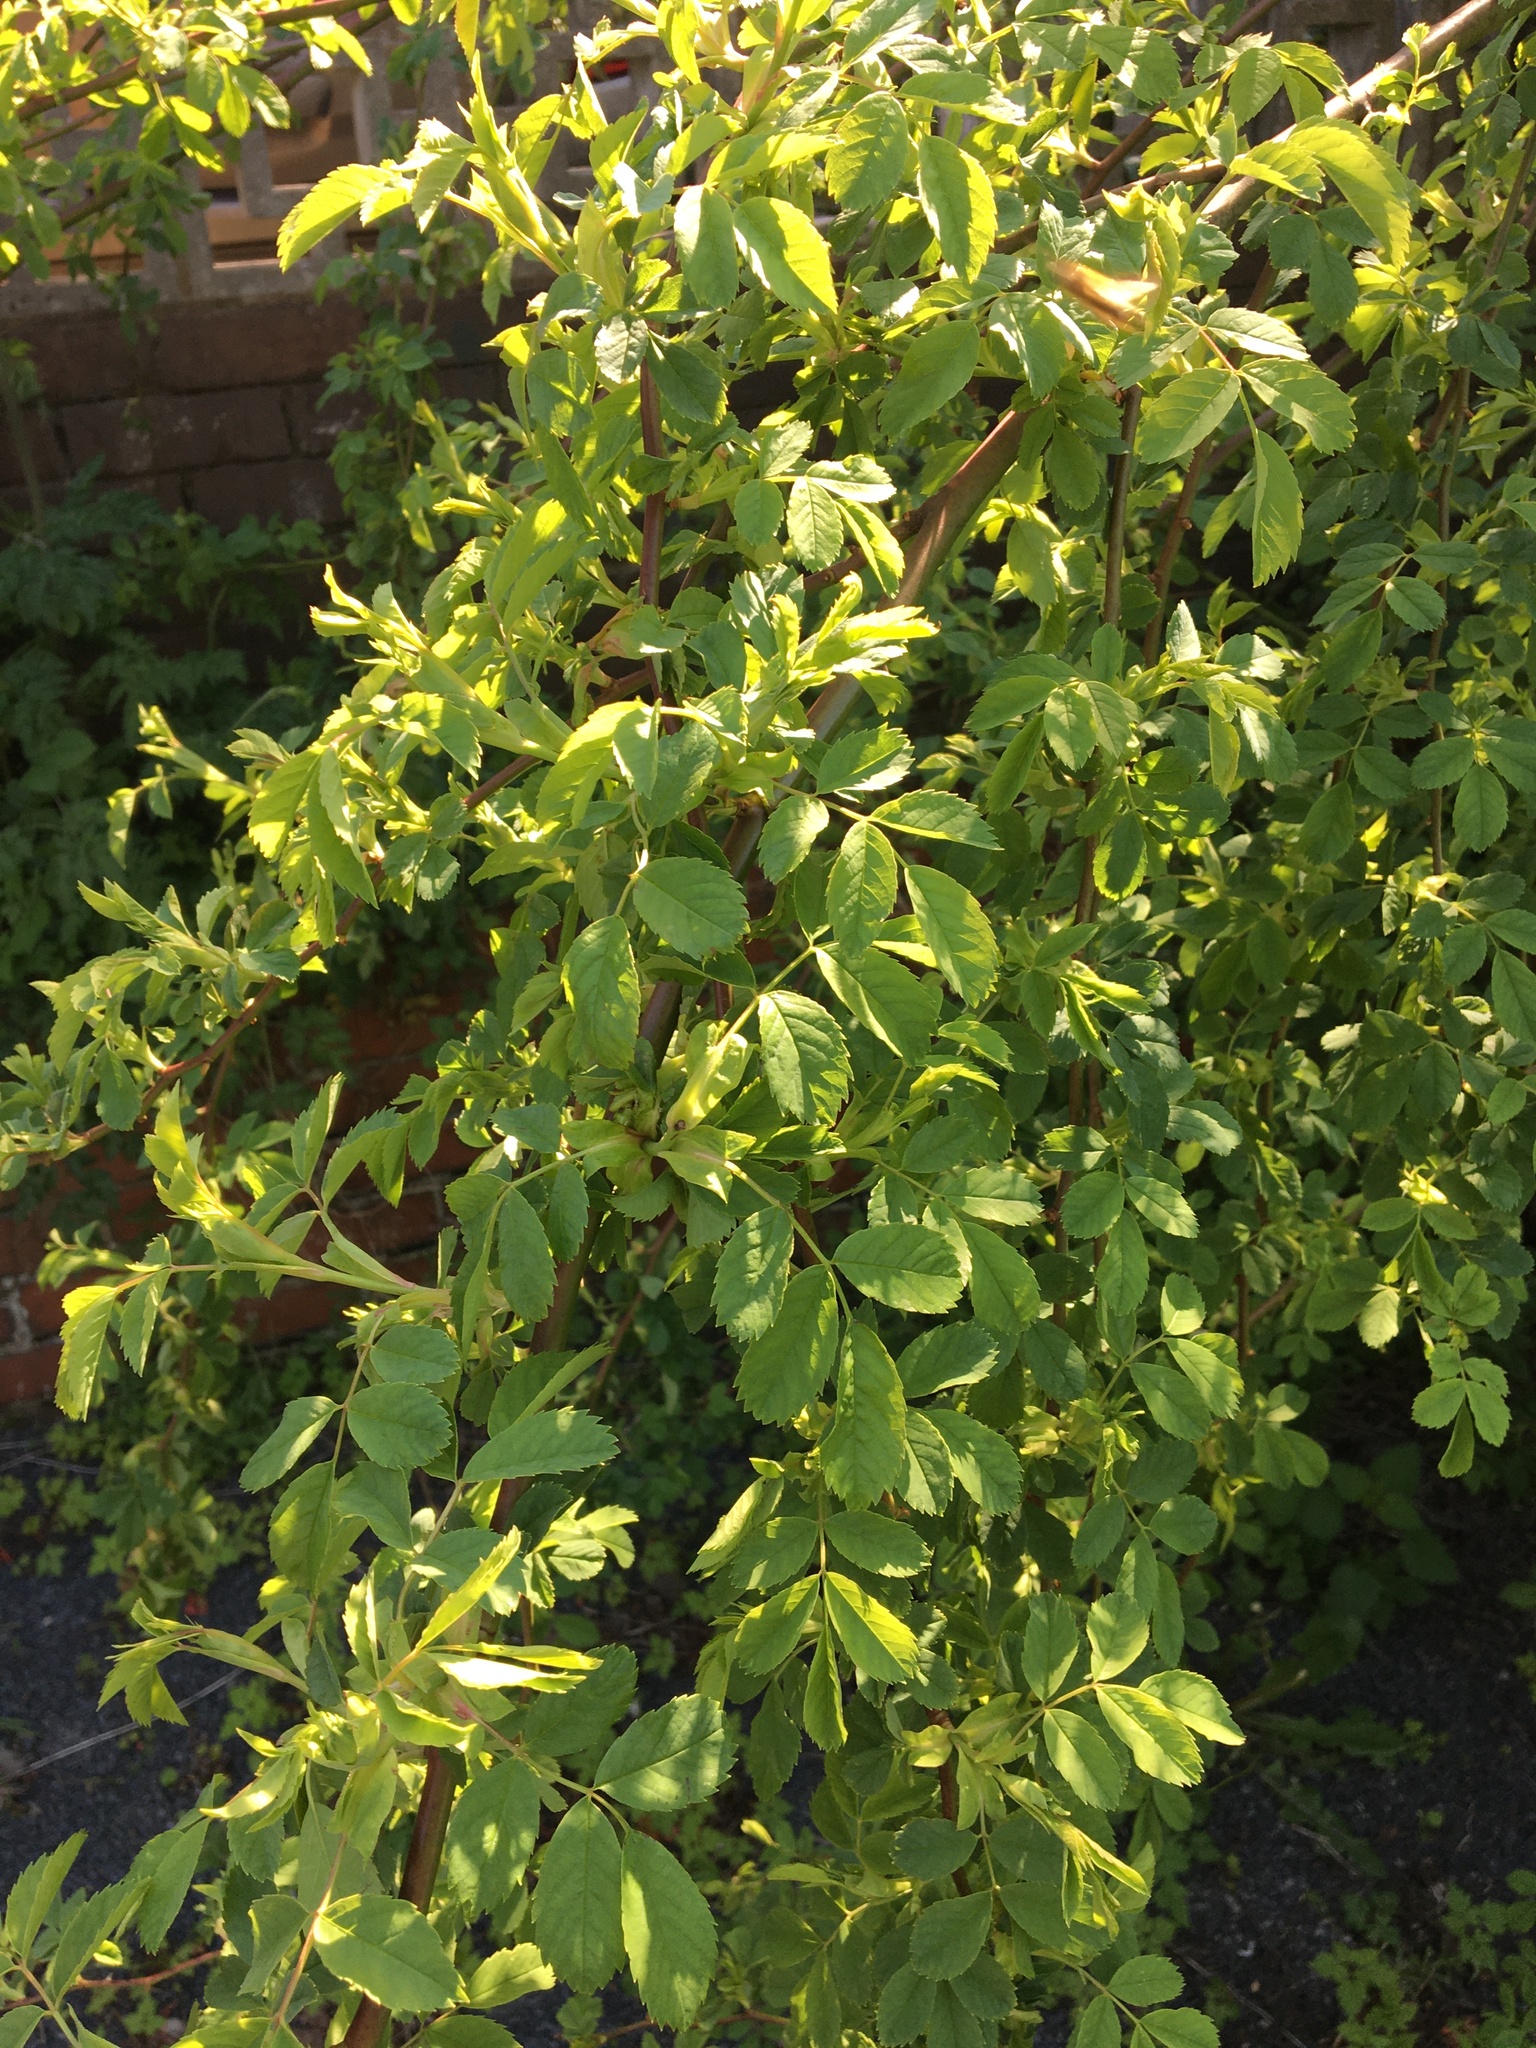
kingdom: Plantae
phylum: Tracheophyta
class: Magnoliopsida
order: Rosales
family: Rosaceae
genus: Rosa
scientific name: Rosa canina
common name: Dog rose
